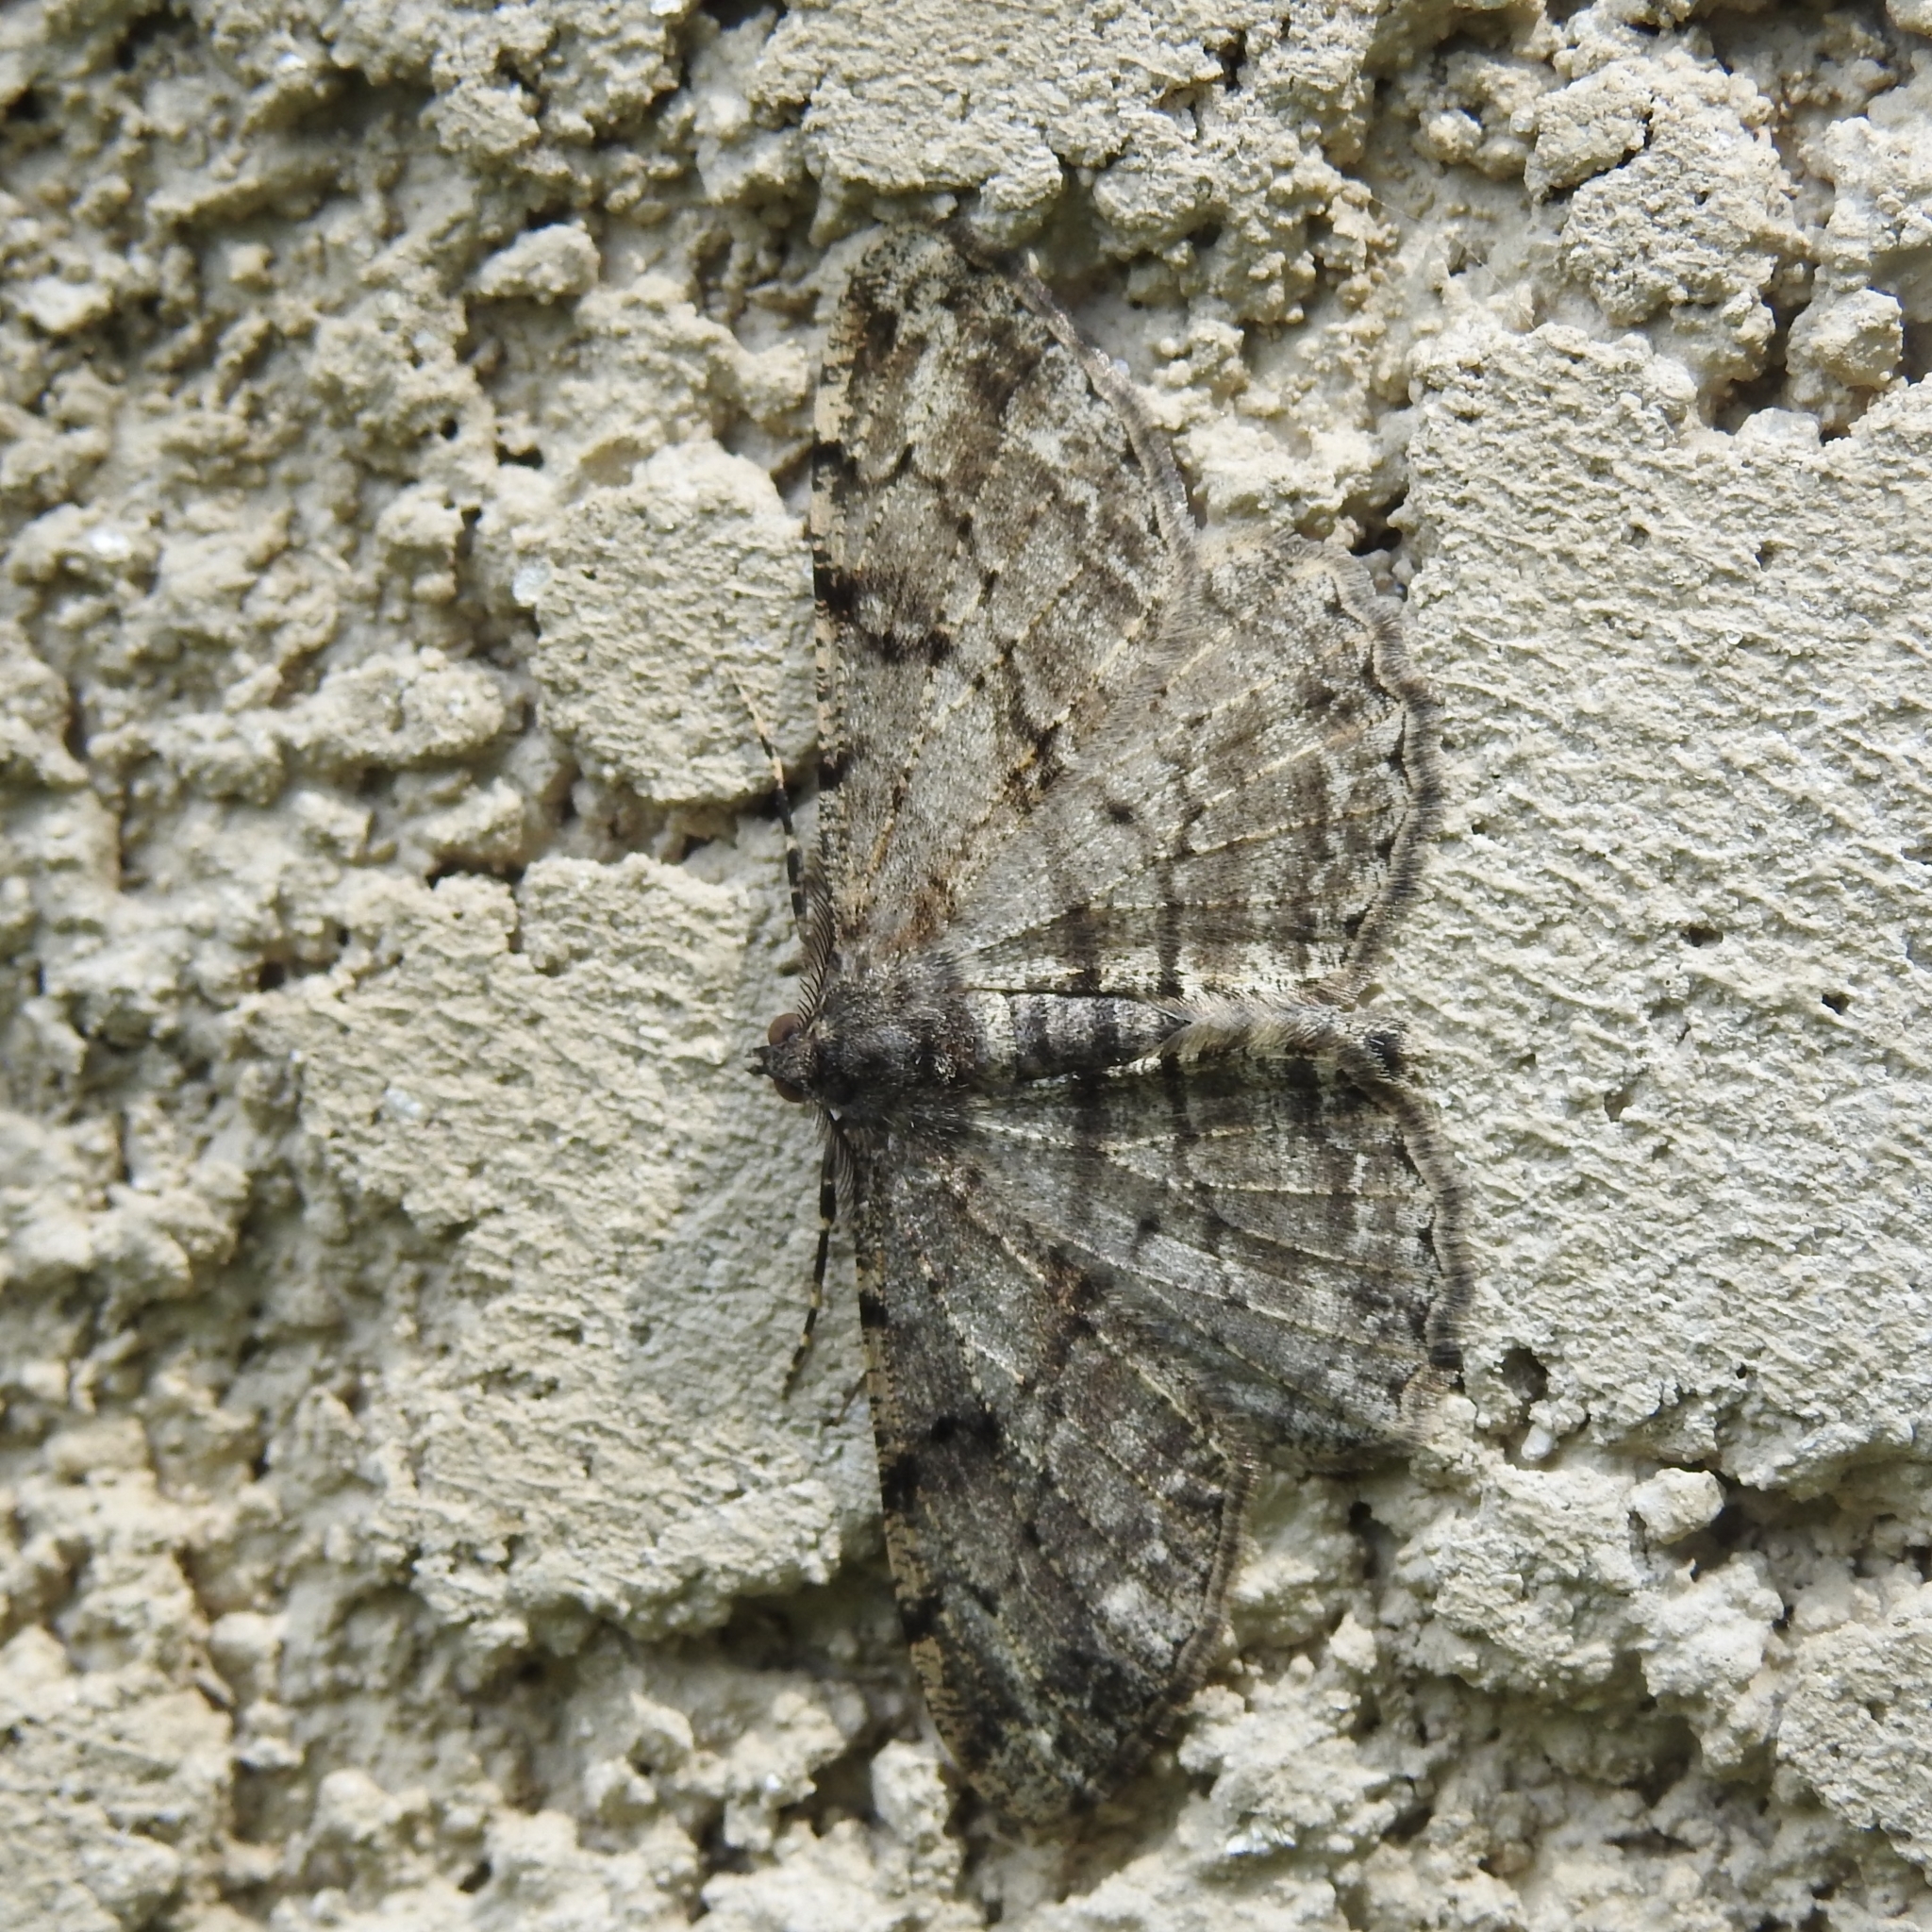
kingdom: Animalia
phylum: Arthropoda
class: Insecta
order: Lepidoptera
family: Geometridae
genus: Peribatodes
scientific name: Peribatodes rhomboidaria
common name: Willow beauty
